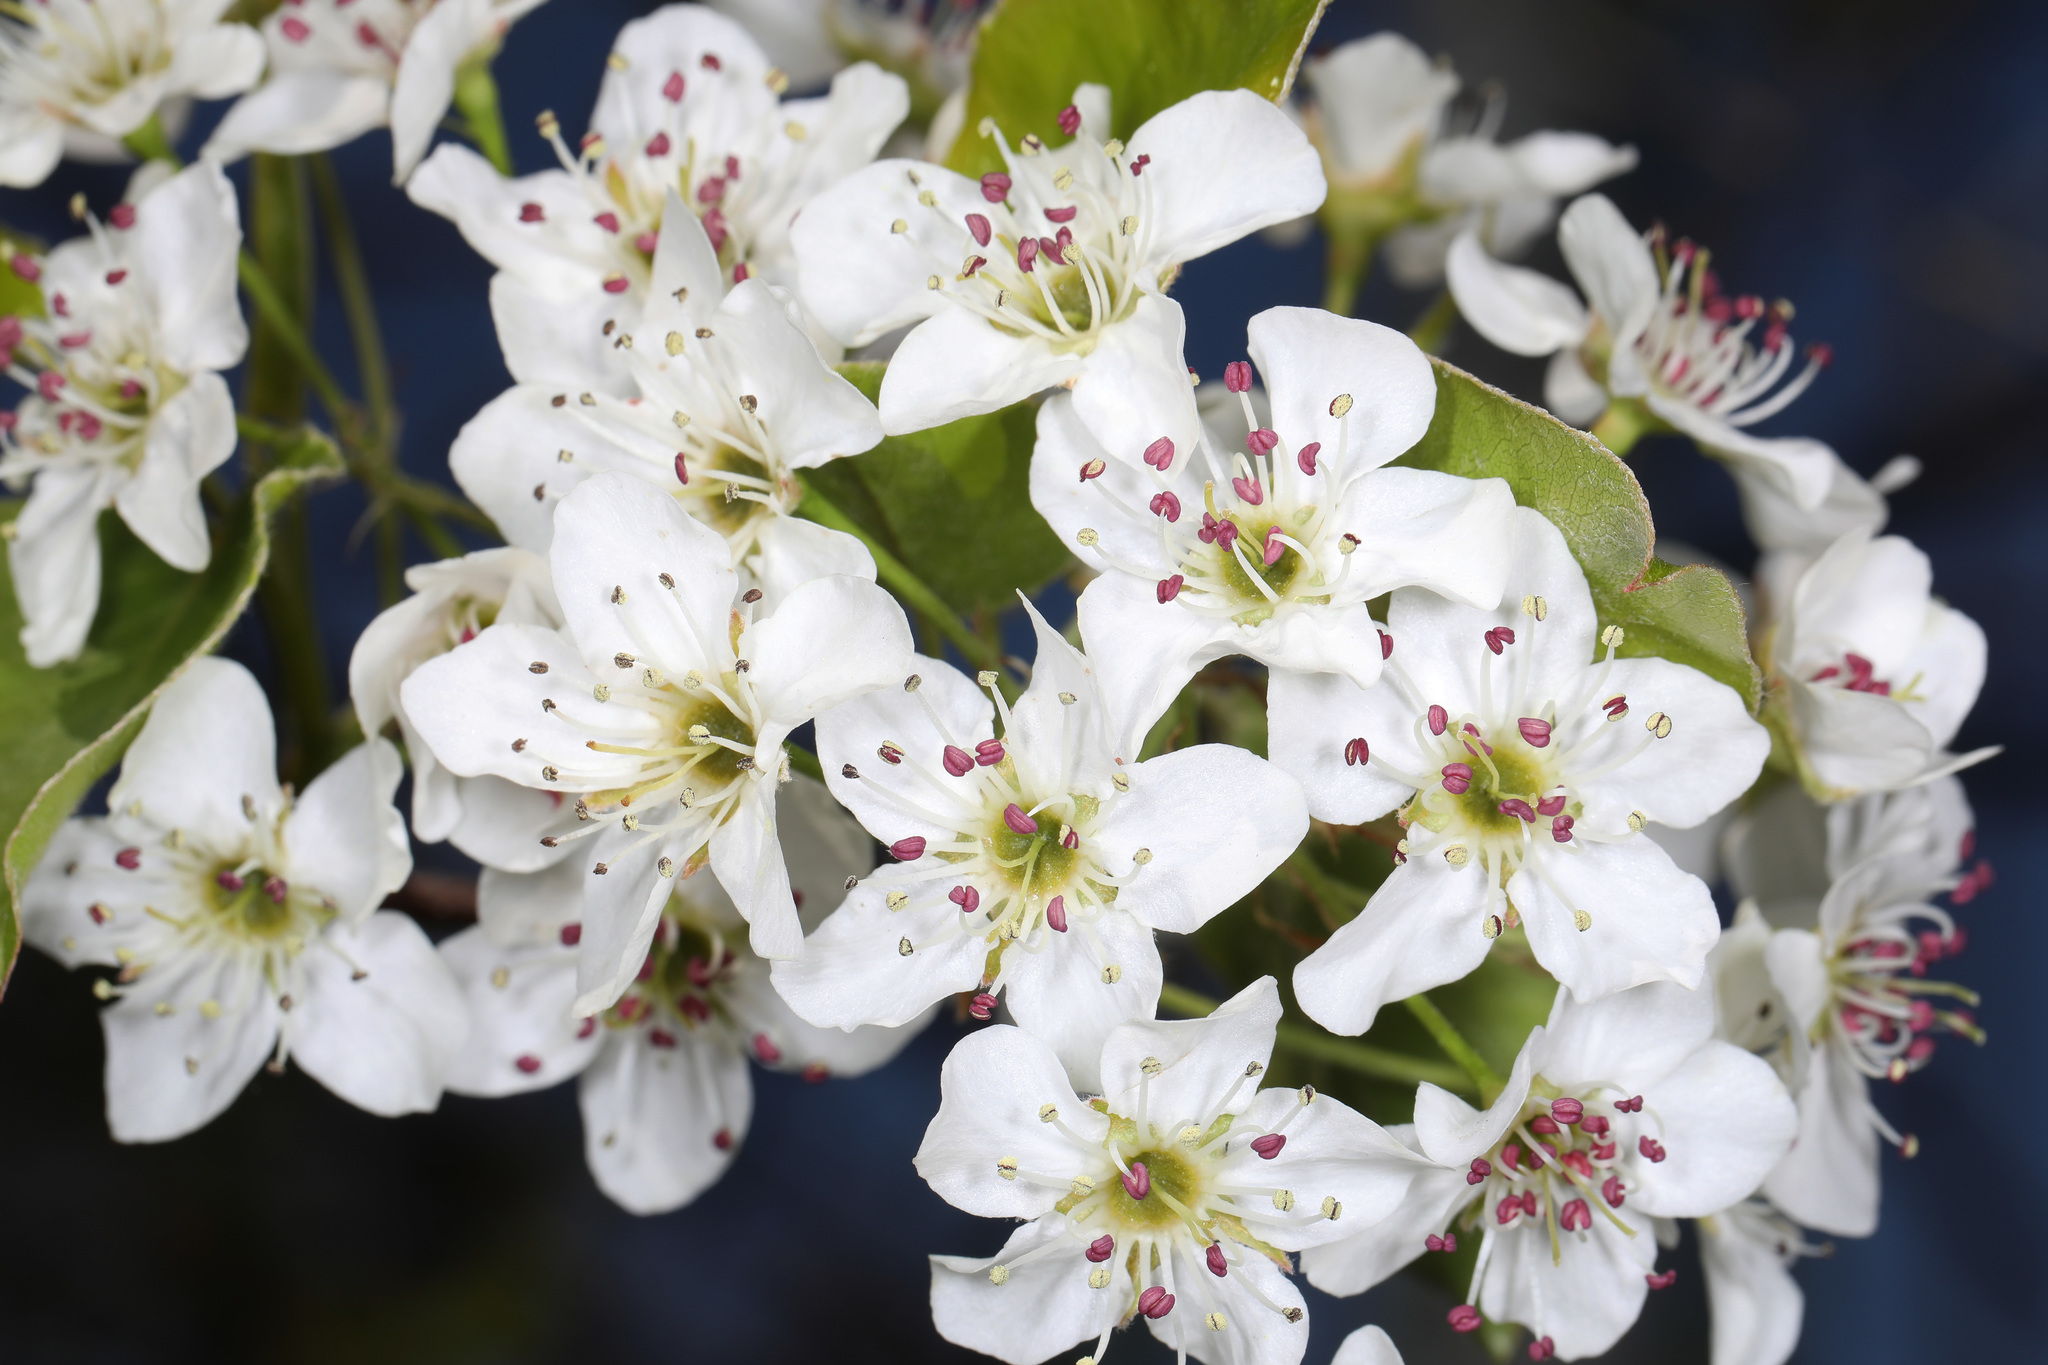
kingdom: Plantae
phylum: Tracheophyta
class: Magnoliopsida
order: Rosales
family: Rosaceae
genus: Pyrus
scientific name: Pyrus calleryana
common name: Callery pear
